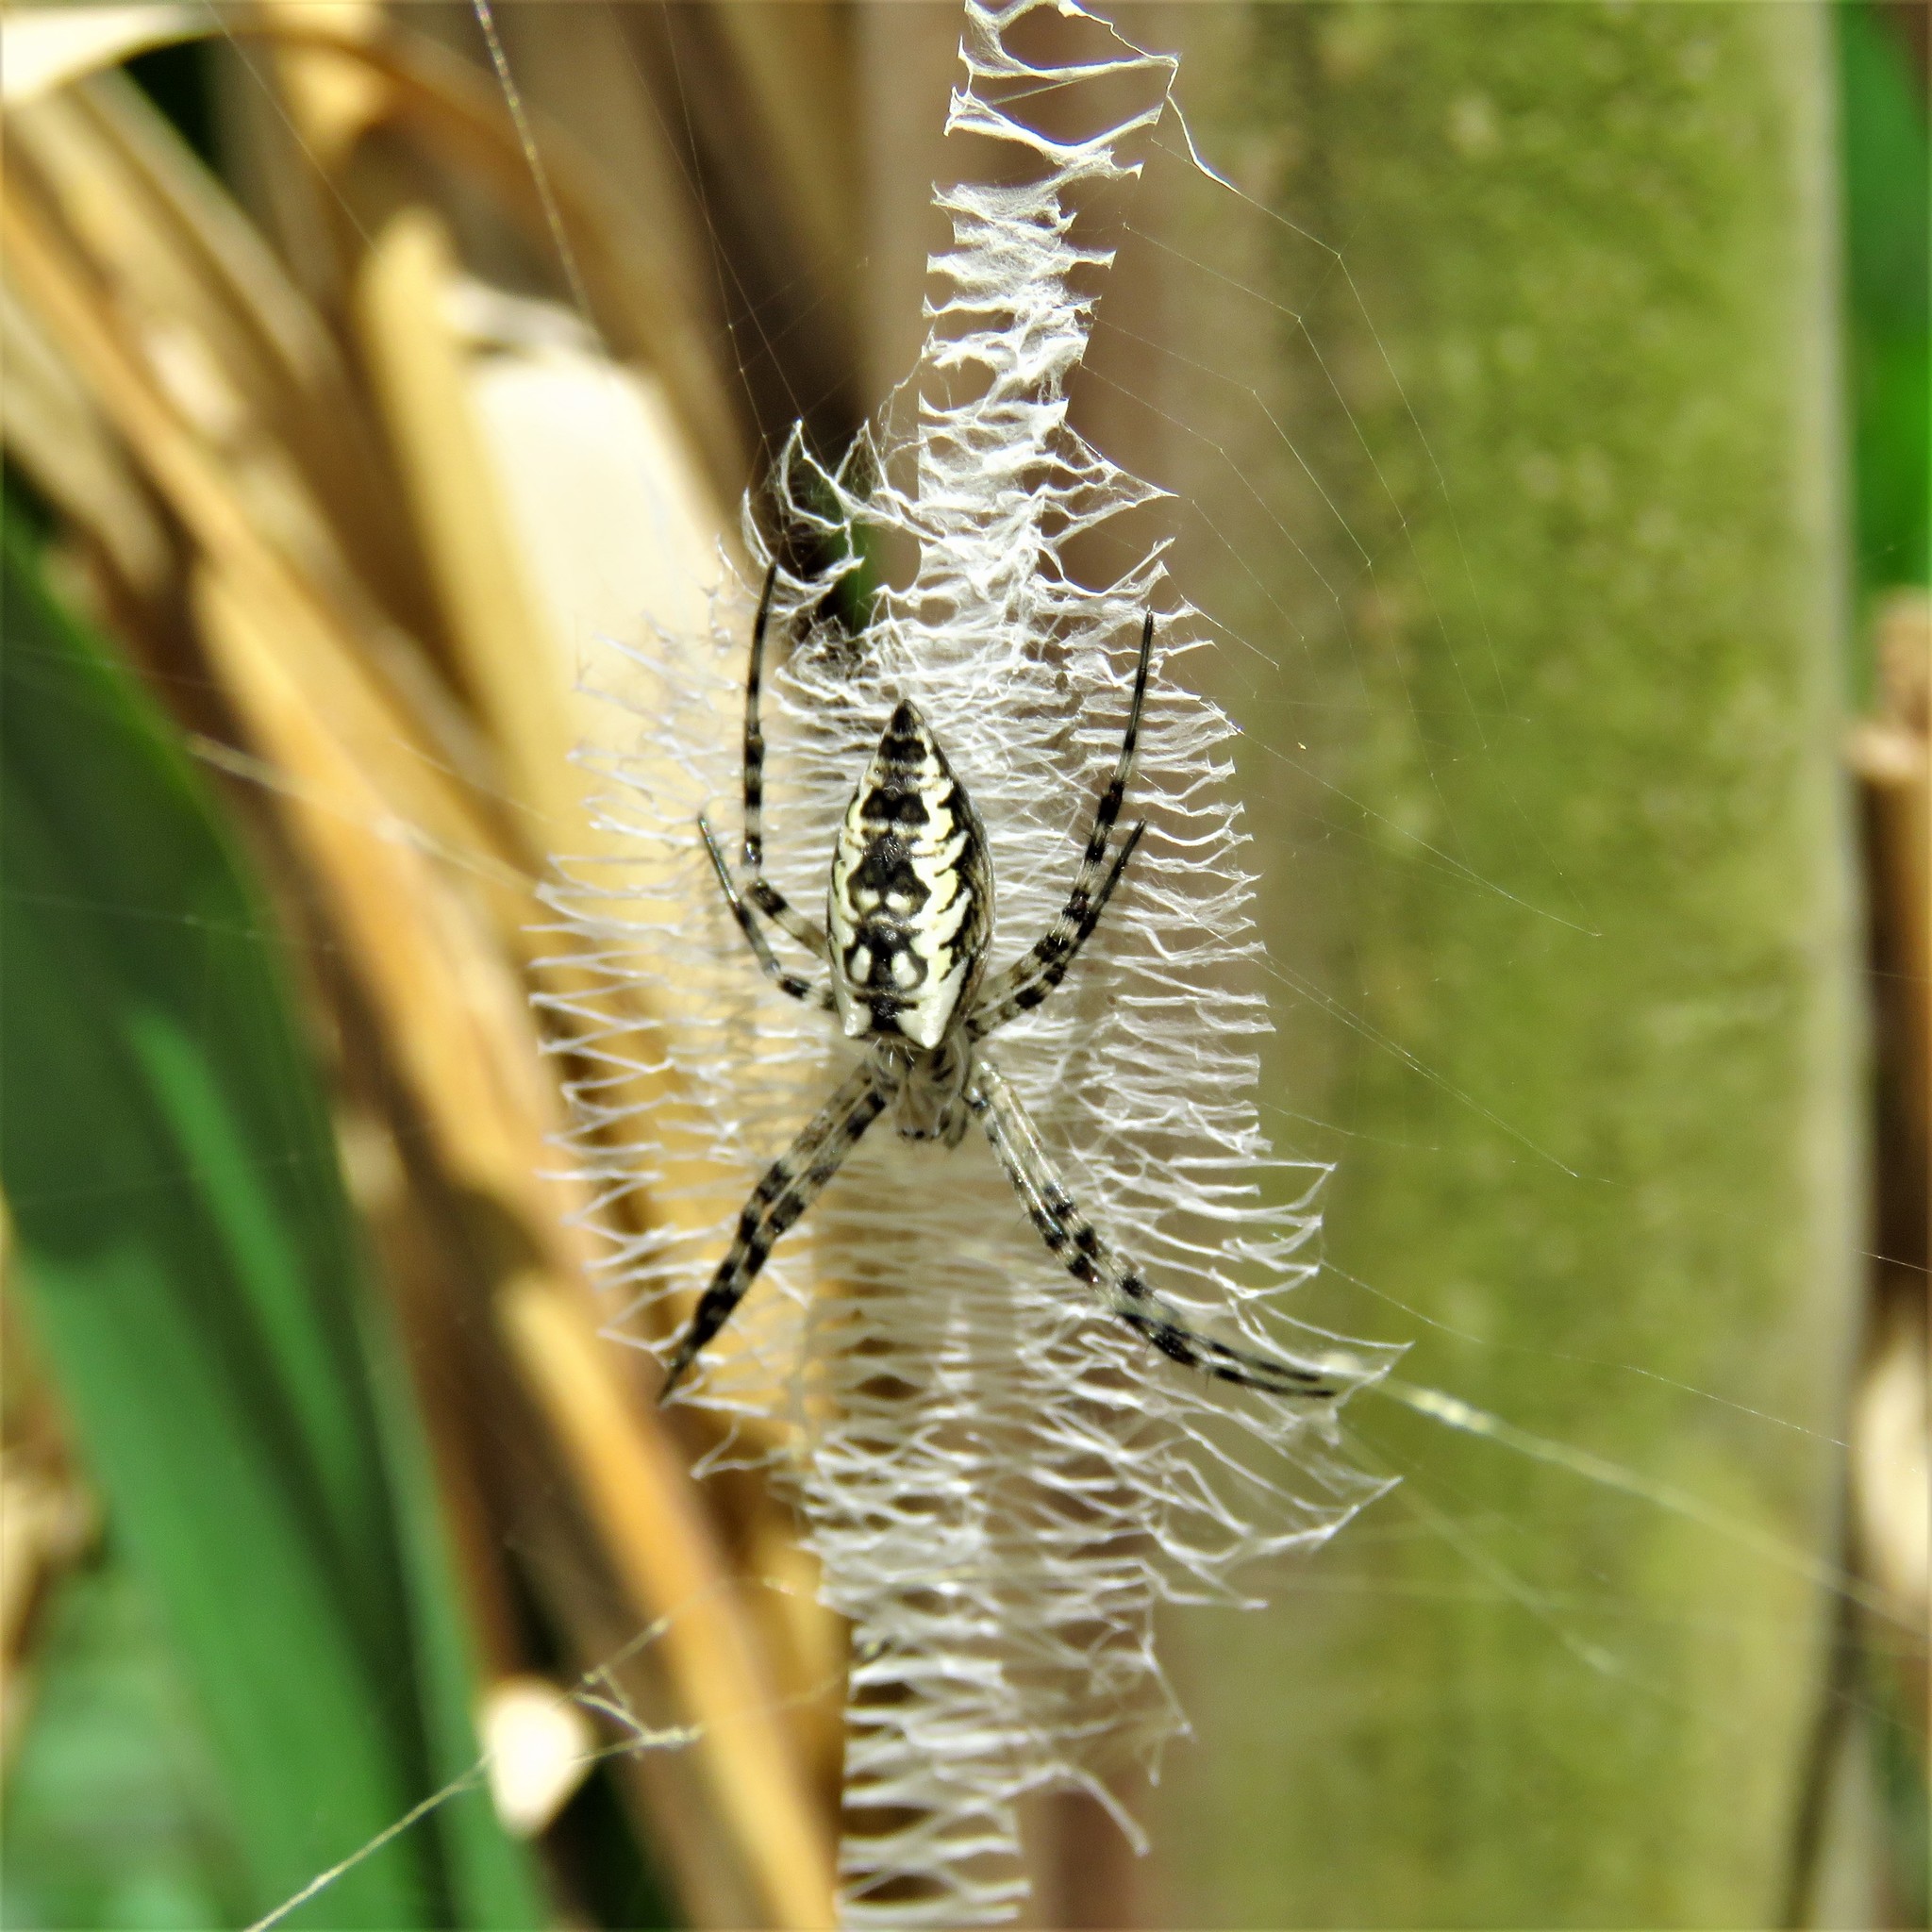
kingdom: Animalia
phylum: Arthropoda
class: Arachnida
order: Araneae
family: Araneidae
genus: Argiope
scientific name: Argiope aurantia
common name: Orb weavers
